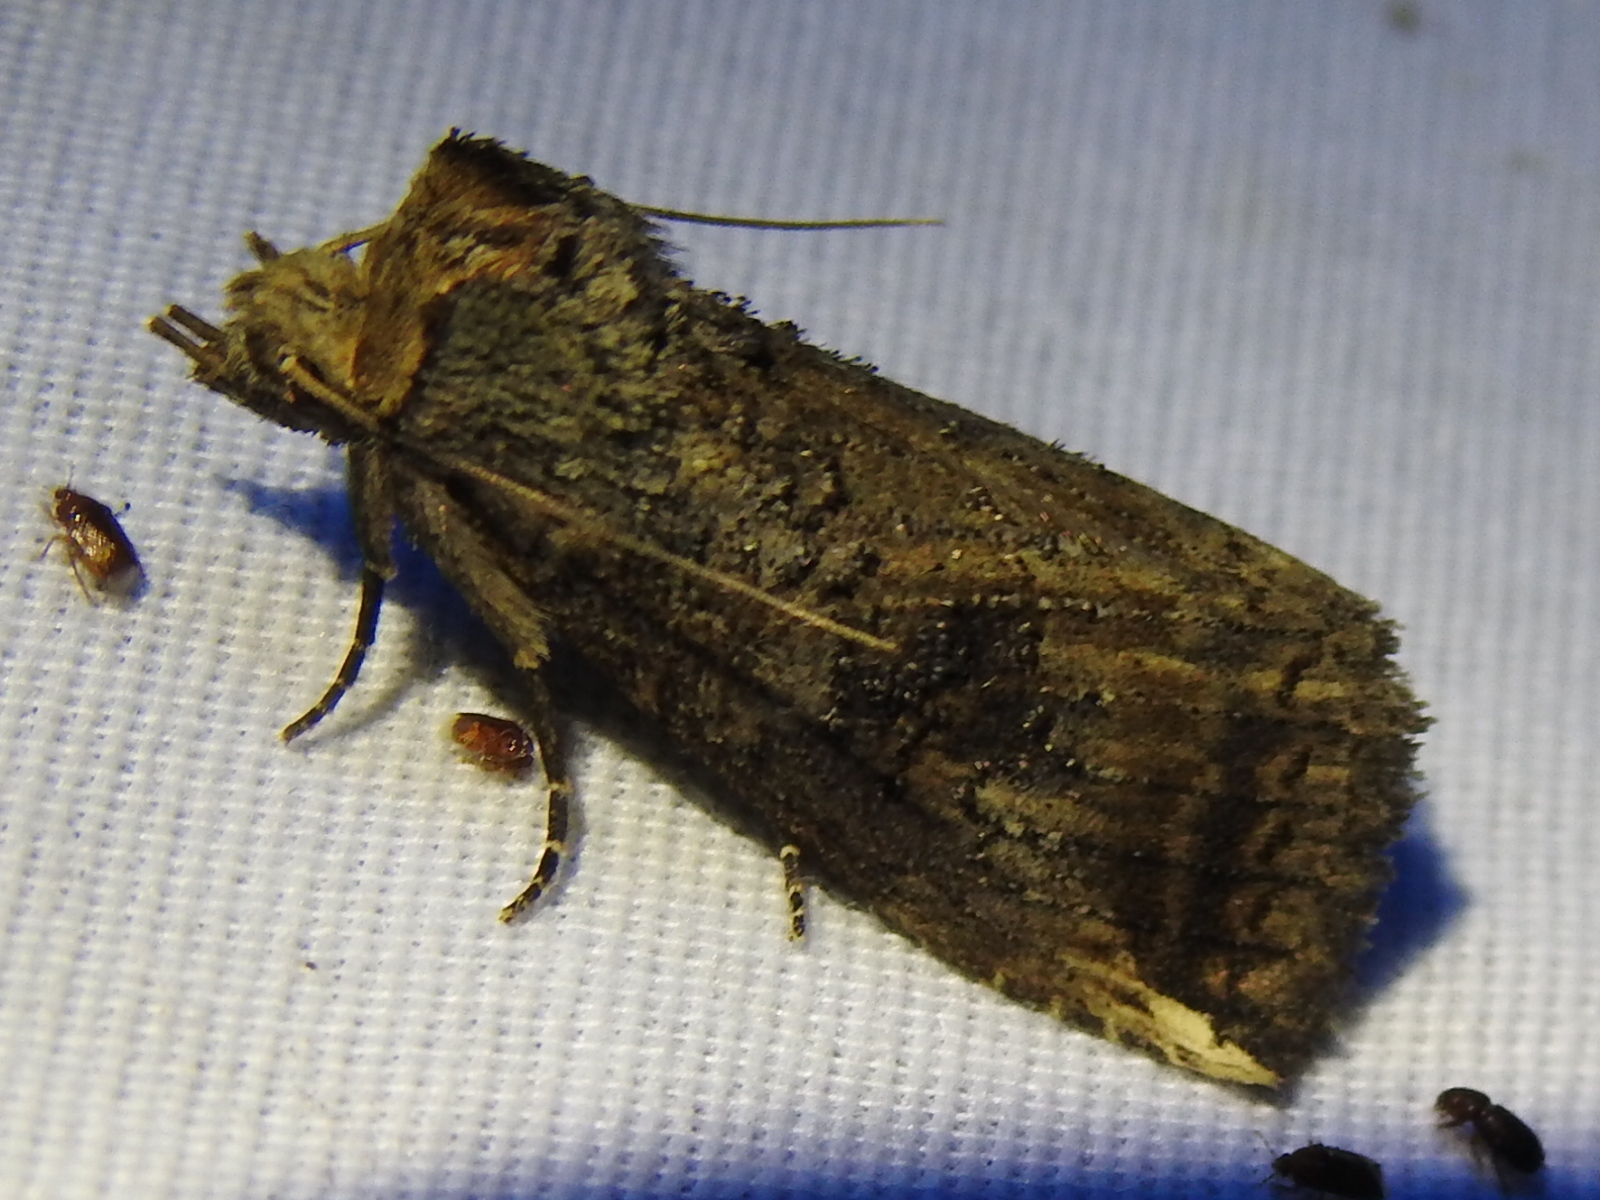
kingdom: Animalia
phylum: Arthropoda
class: Insecta
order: Lepidoptera
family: Notodontidae
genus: Elasmia
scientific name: Elasmia packardii
